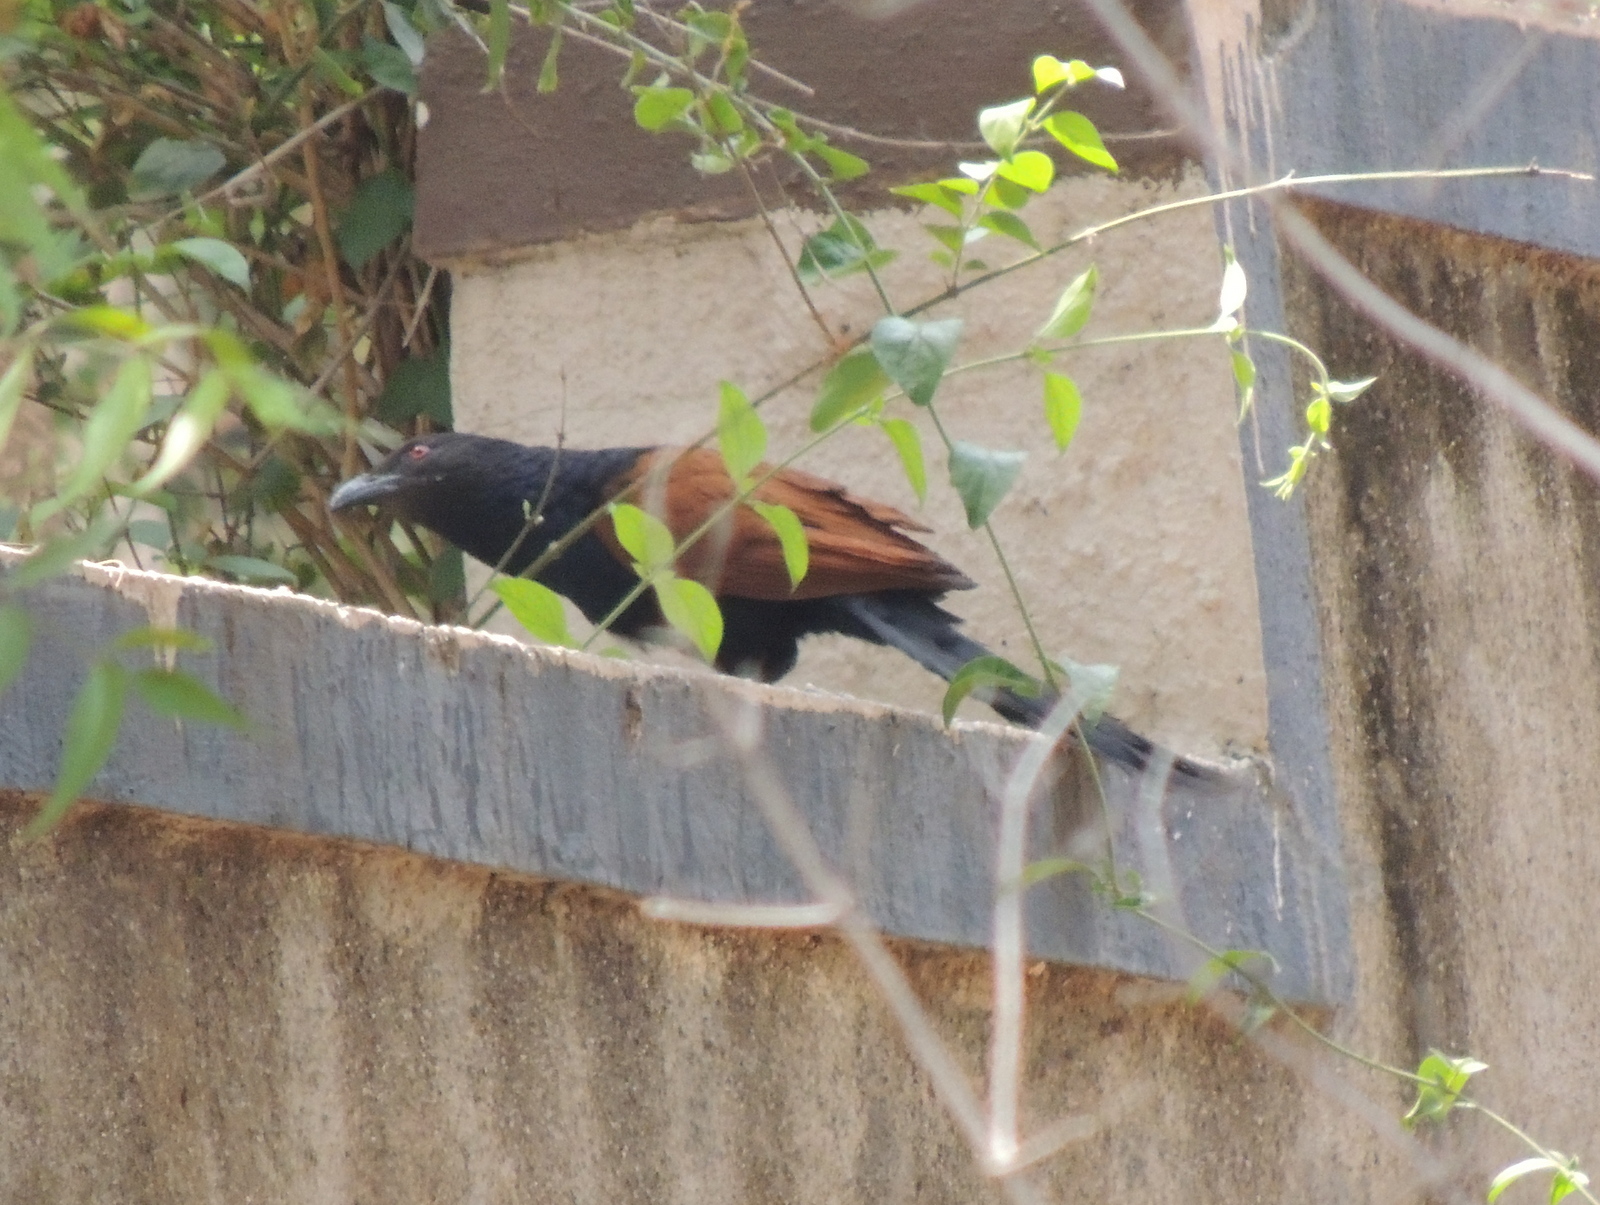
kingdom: Animalia
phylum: Chordata
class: Aves
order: Cuculiformes
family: Cuculidae
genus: Centropus
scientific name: Centropus sinensis
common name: Greater coucal
